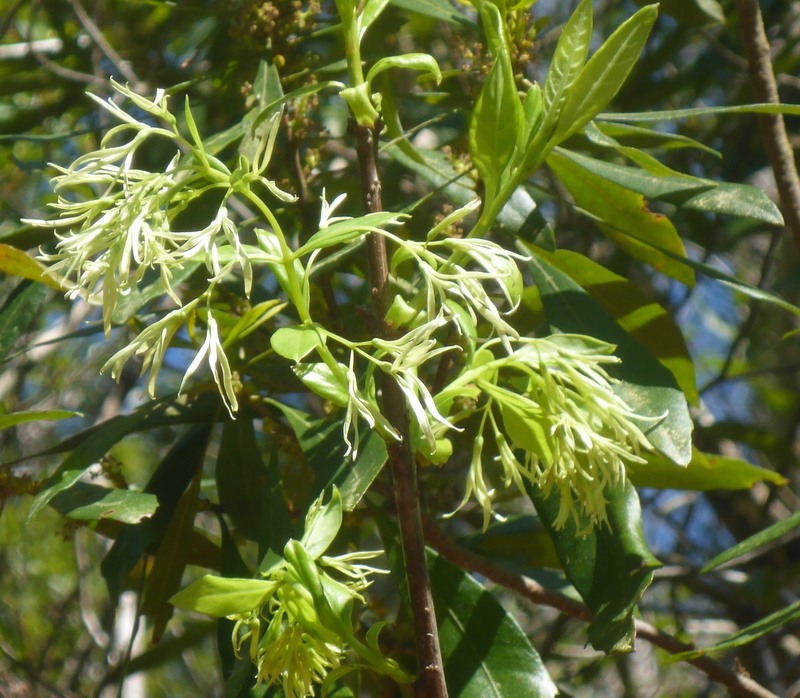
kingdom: Plantae
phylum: Tracheophyta
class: Magnoliopsida
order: Lamiales
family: Oleaceae
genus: Chionanthus
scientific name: Chionanthus virginicus
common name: American fringetree
